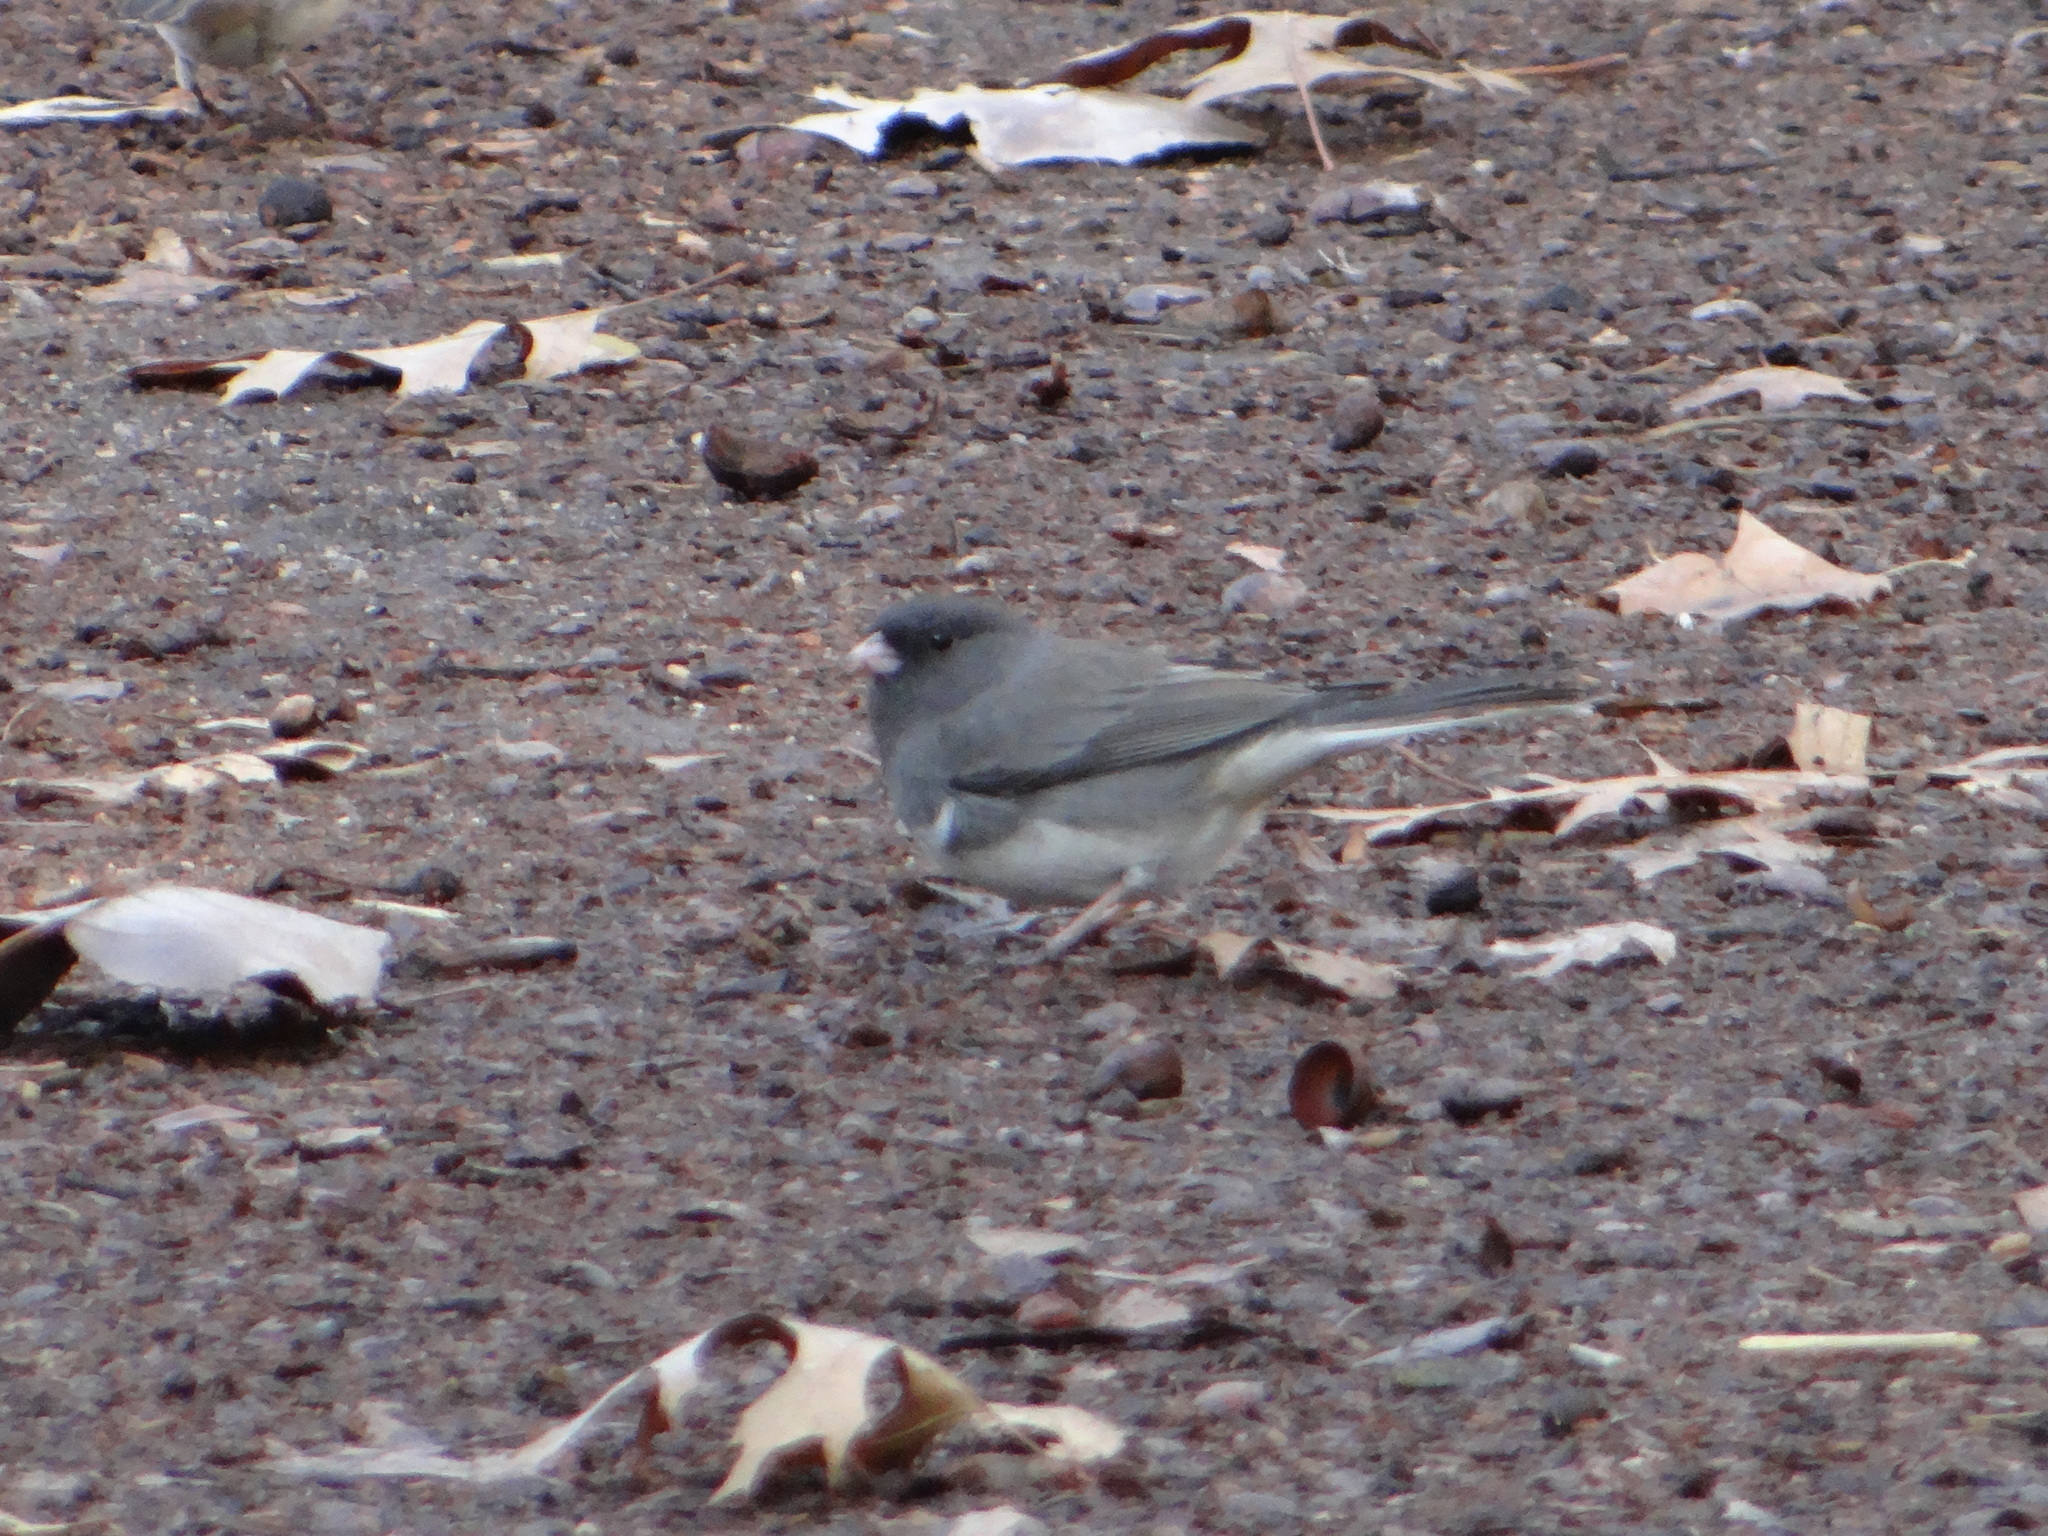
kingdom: Animalia
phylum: Chordata
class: Aves
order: Passeriformes
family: Passerellidae
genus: Junco
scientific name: Junco hyemalis
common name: Dark-eyed junco
